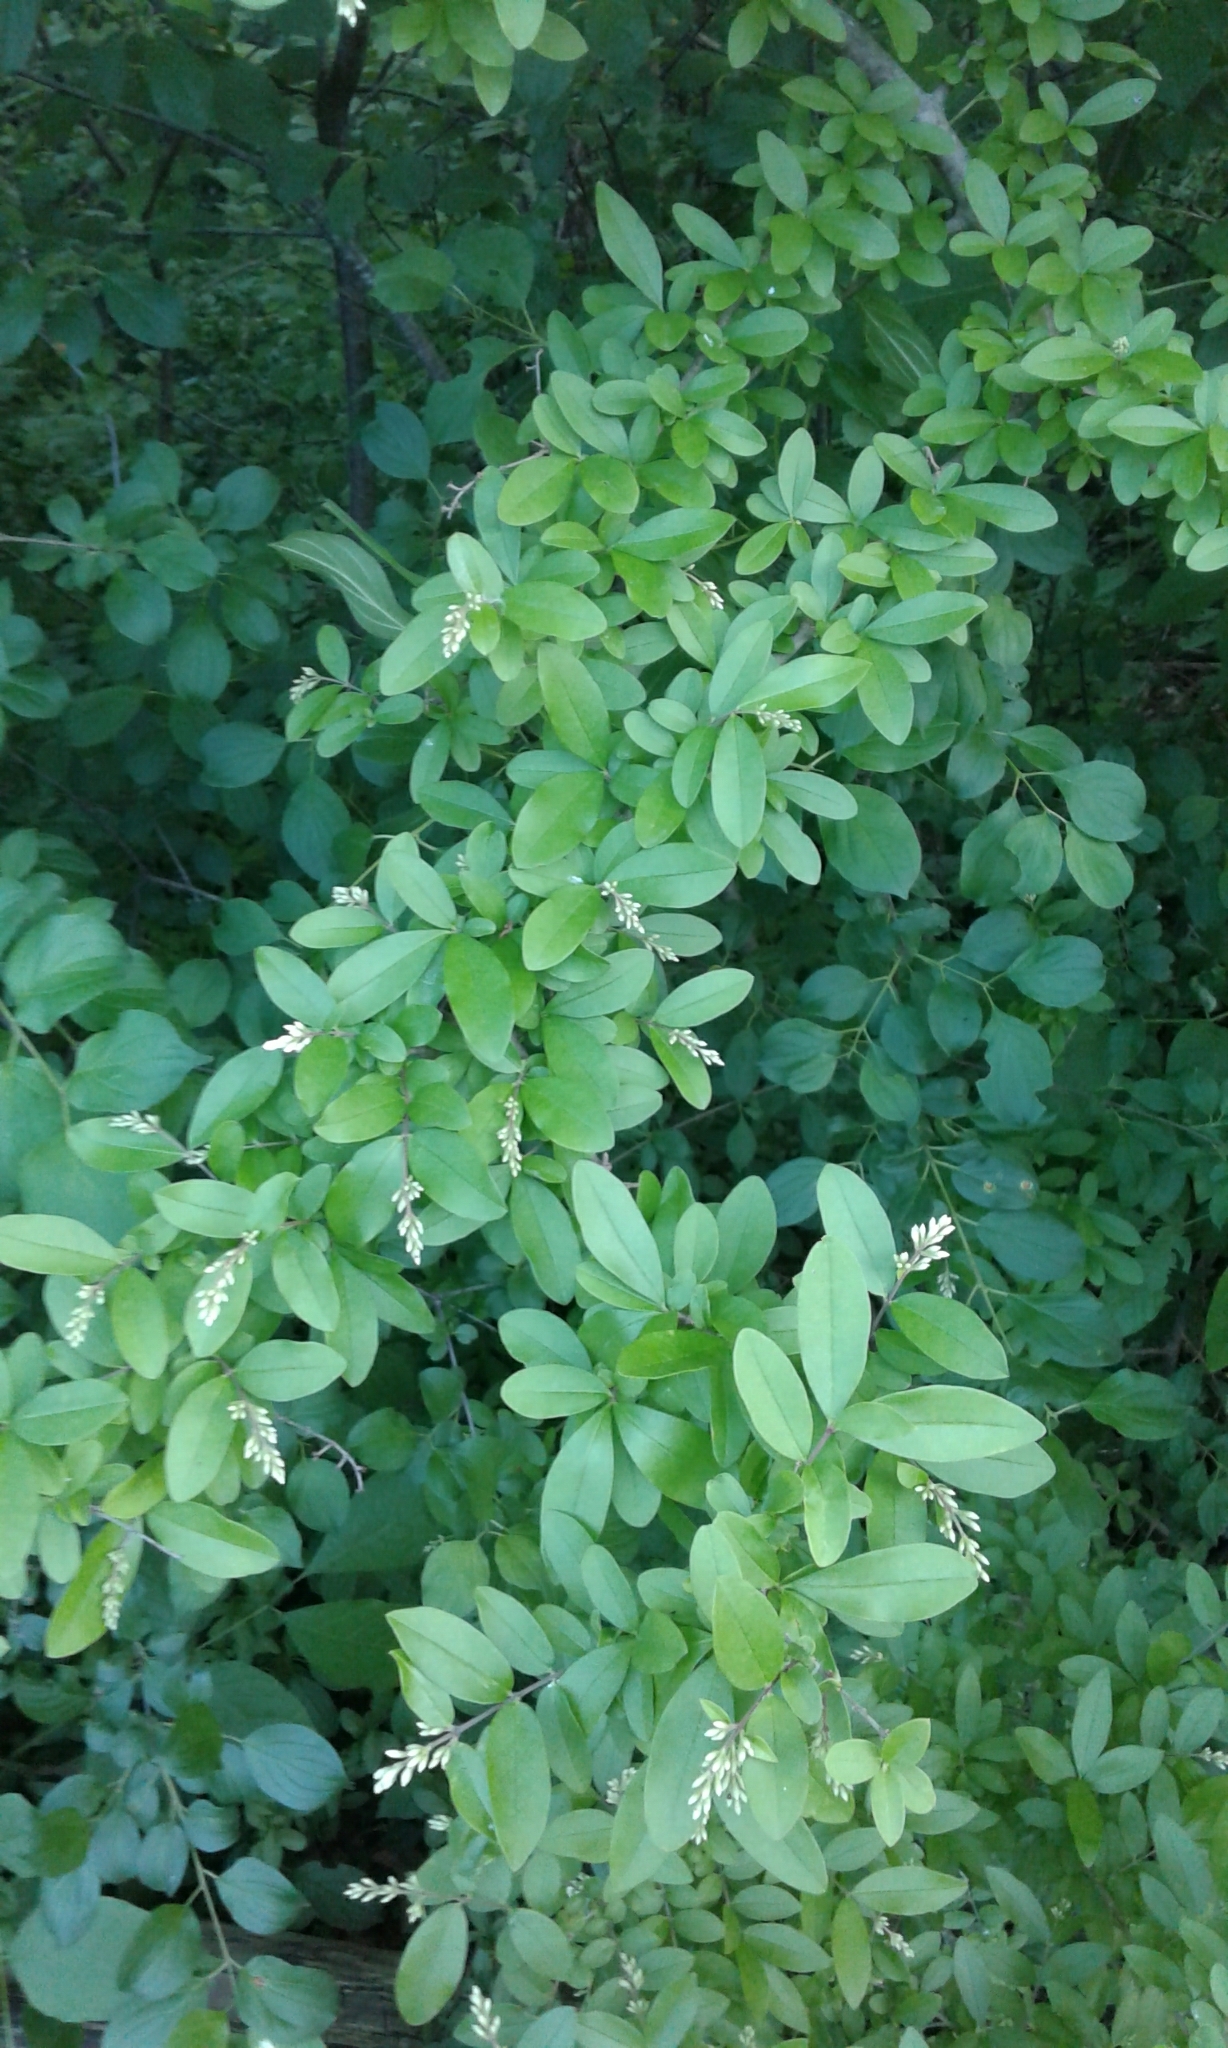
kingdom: Plantae
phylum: Tracheophyta
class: Magnoliopsida
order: Lamiales
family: Oleaceae
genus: Ligustrum
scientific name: Ligustrum vulgare
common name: Wild privet
